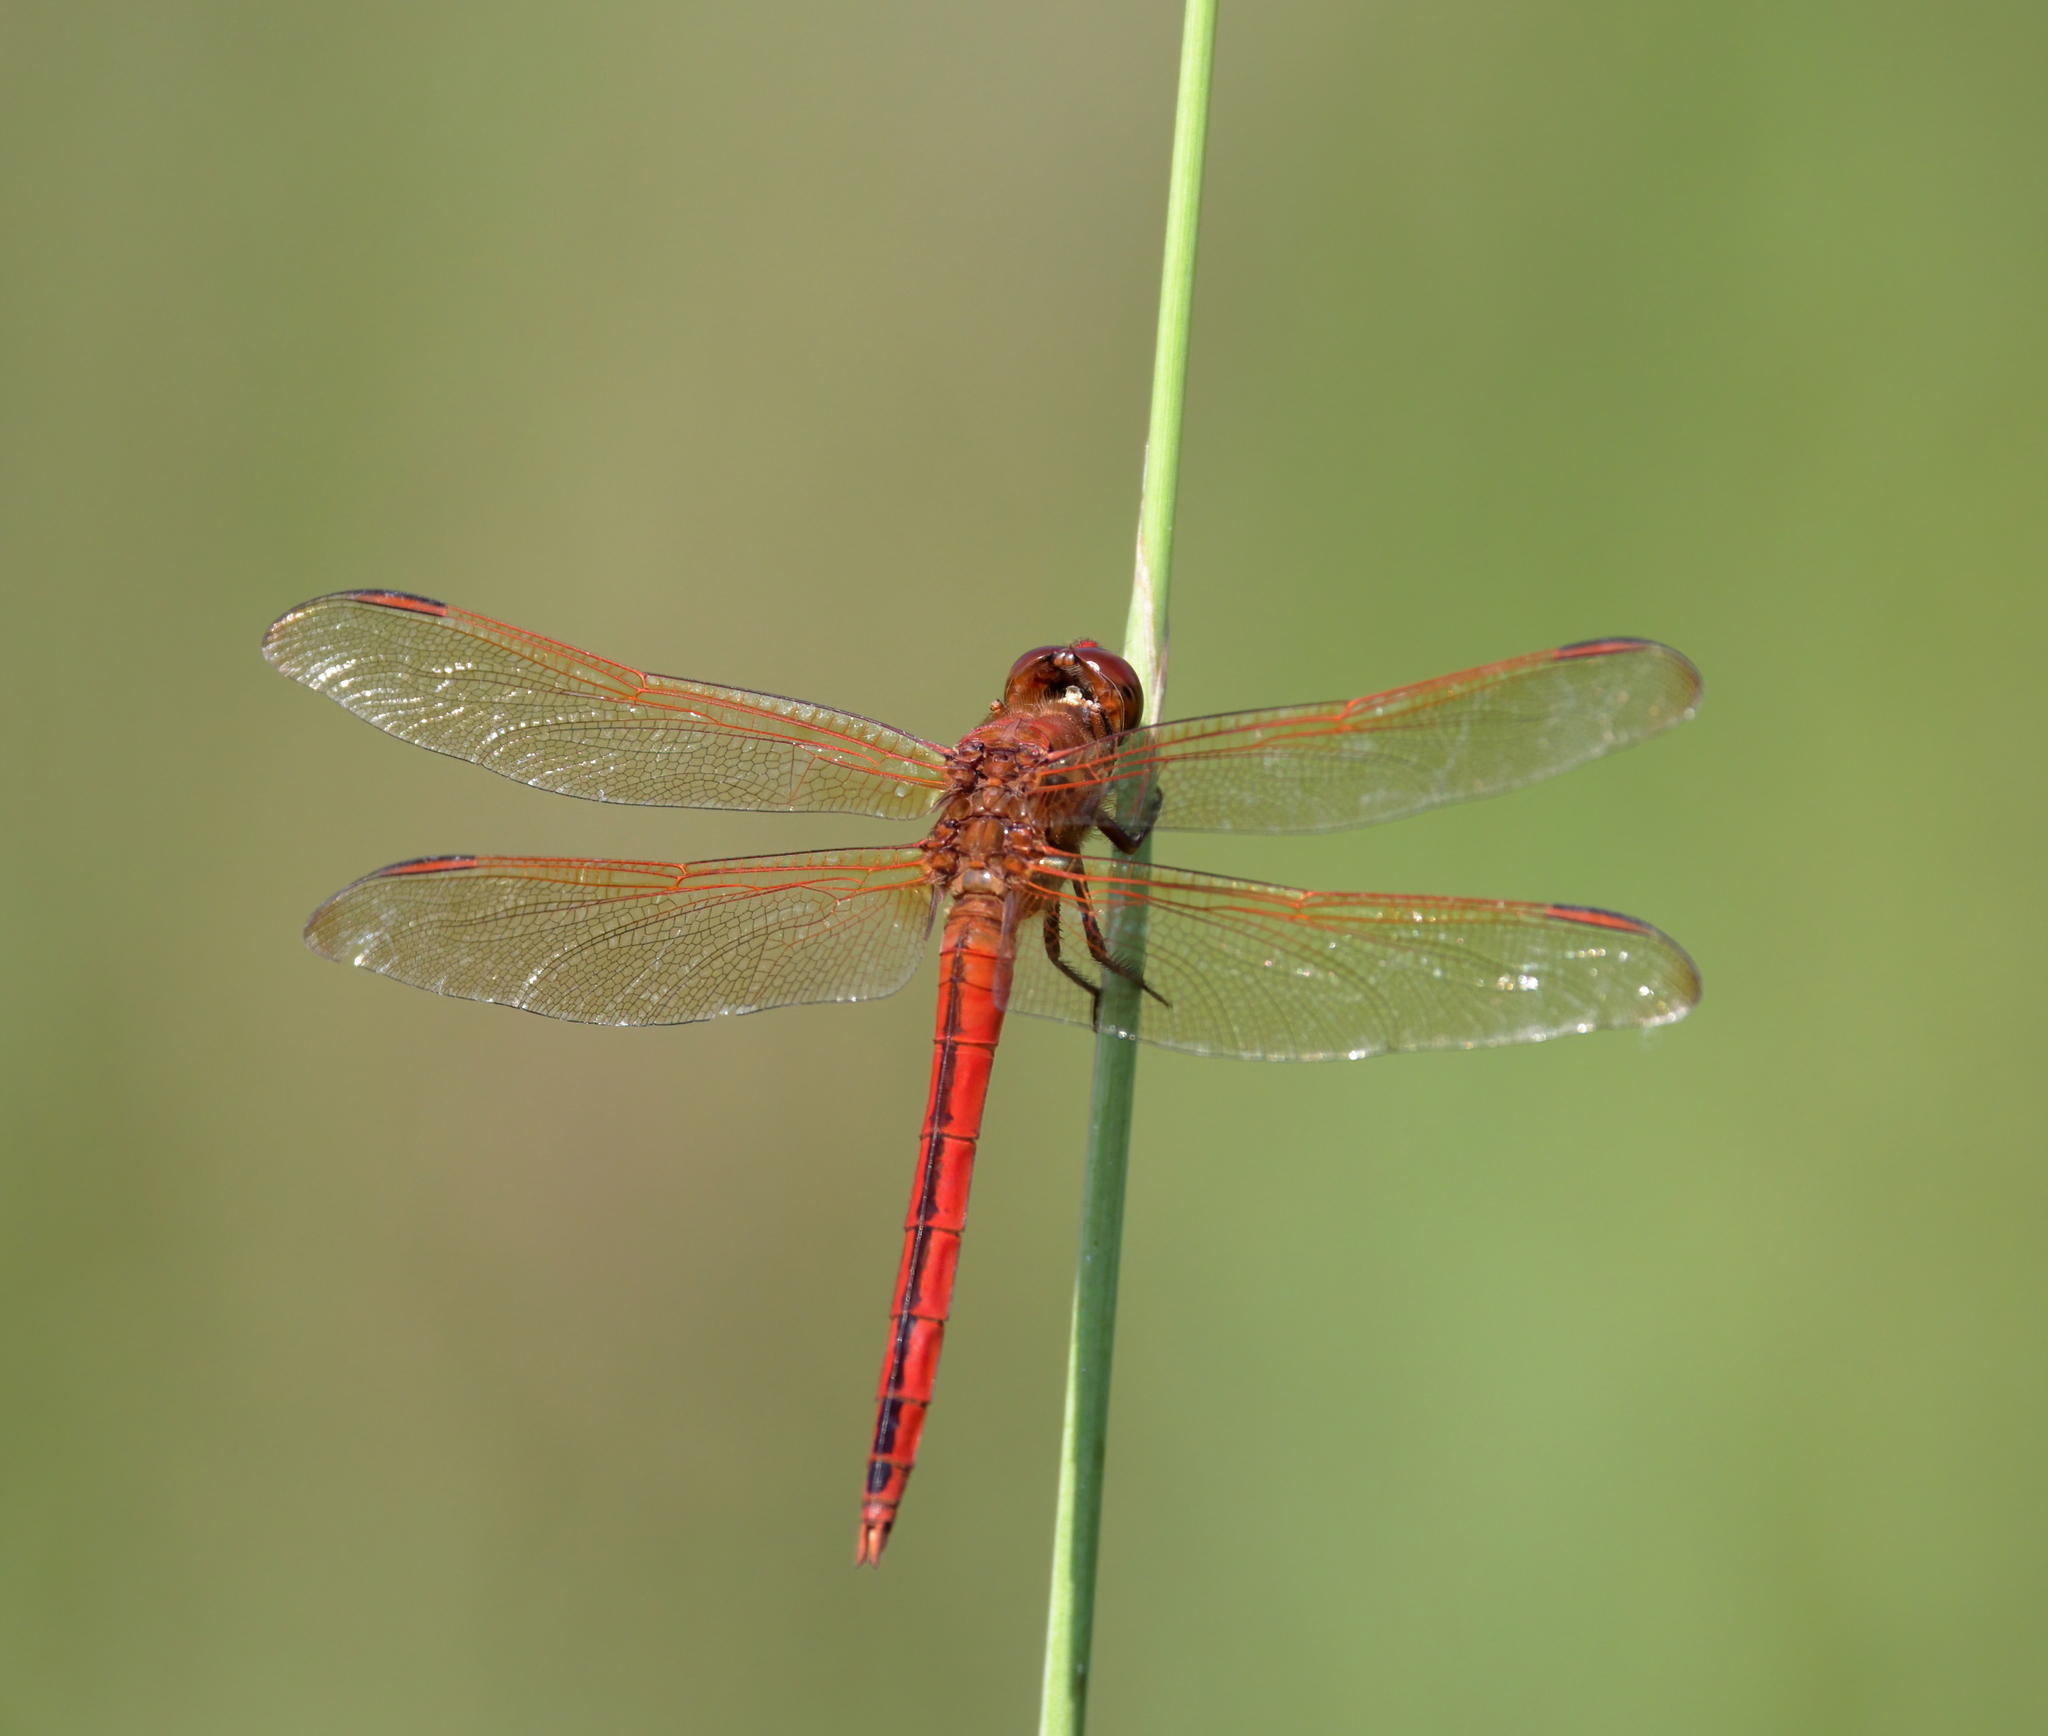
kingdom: Animalia
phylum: Arthropoda
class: Insecta
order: Odonata
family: Libellulidae
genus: Libellula
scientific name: Libellula needhami
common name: Needham's skimmer
